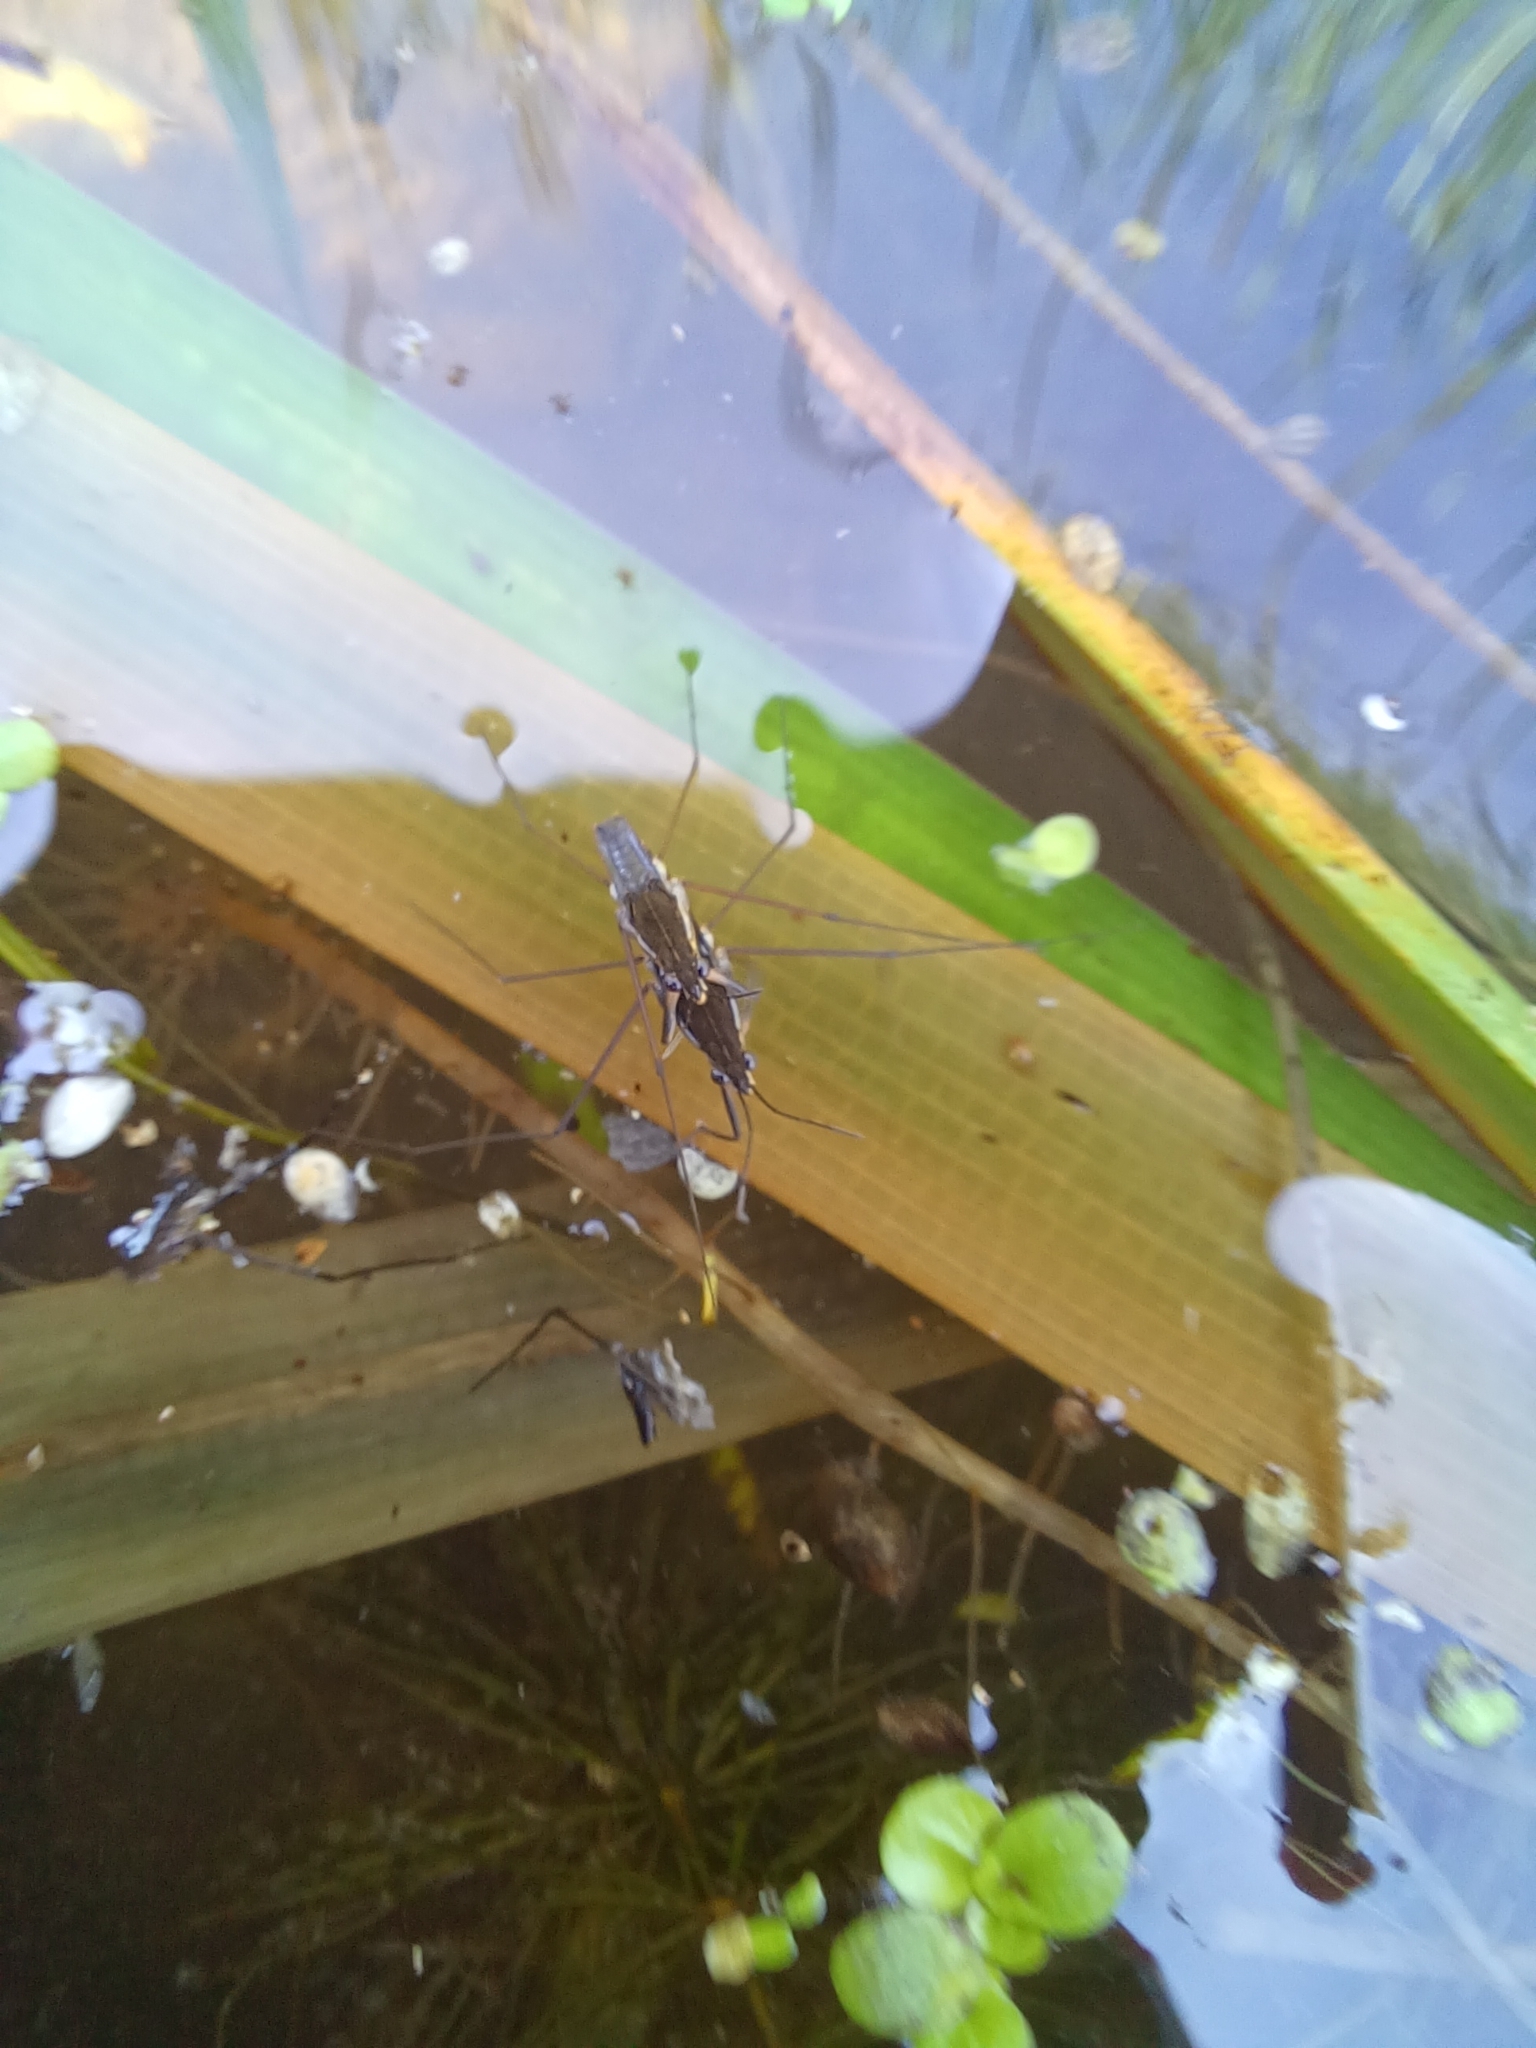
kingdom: Animalia
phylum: Arthropoda
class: Insecta
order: Hemiptera
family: Gerridae
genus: Gerris
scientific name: Gerris
